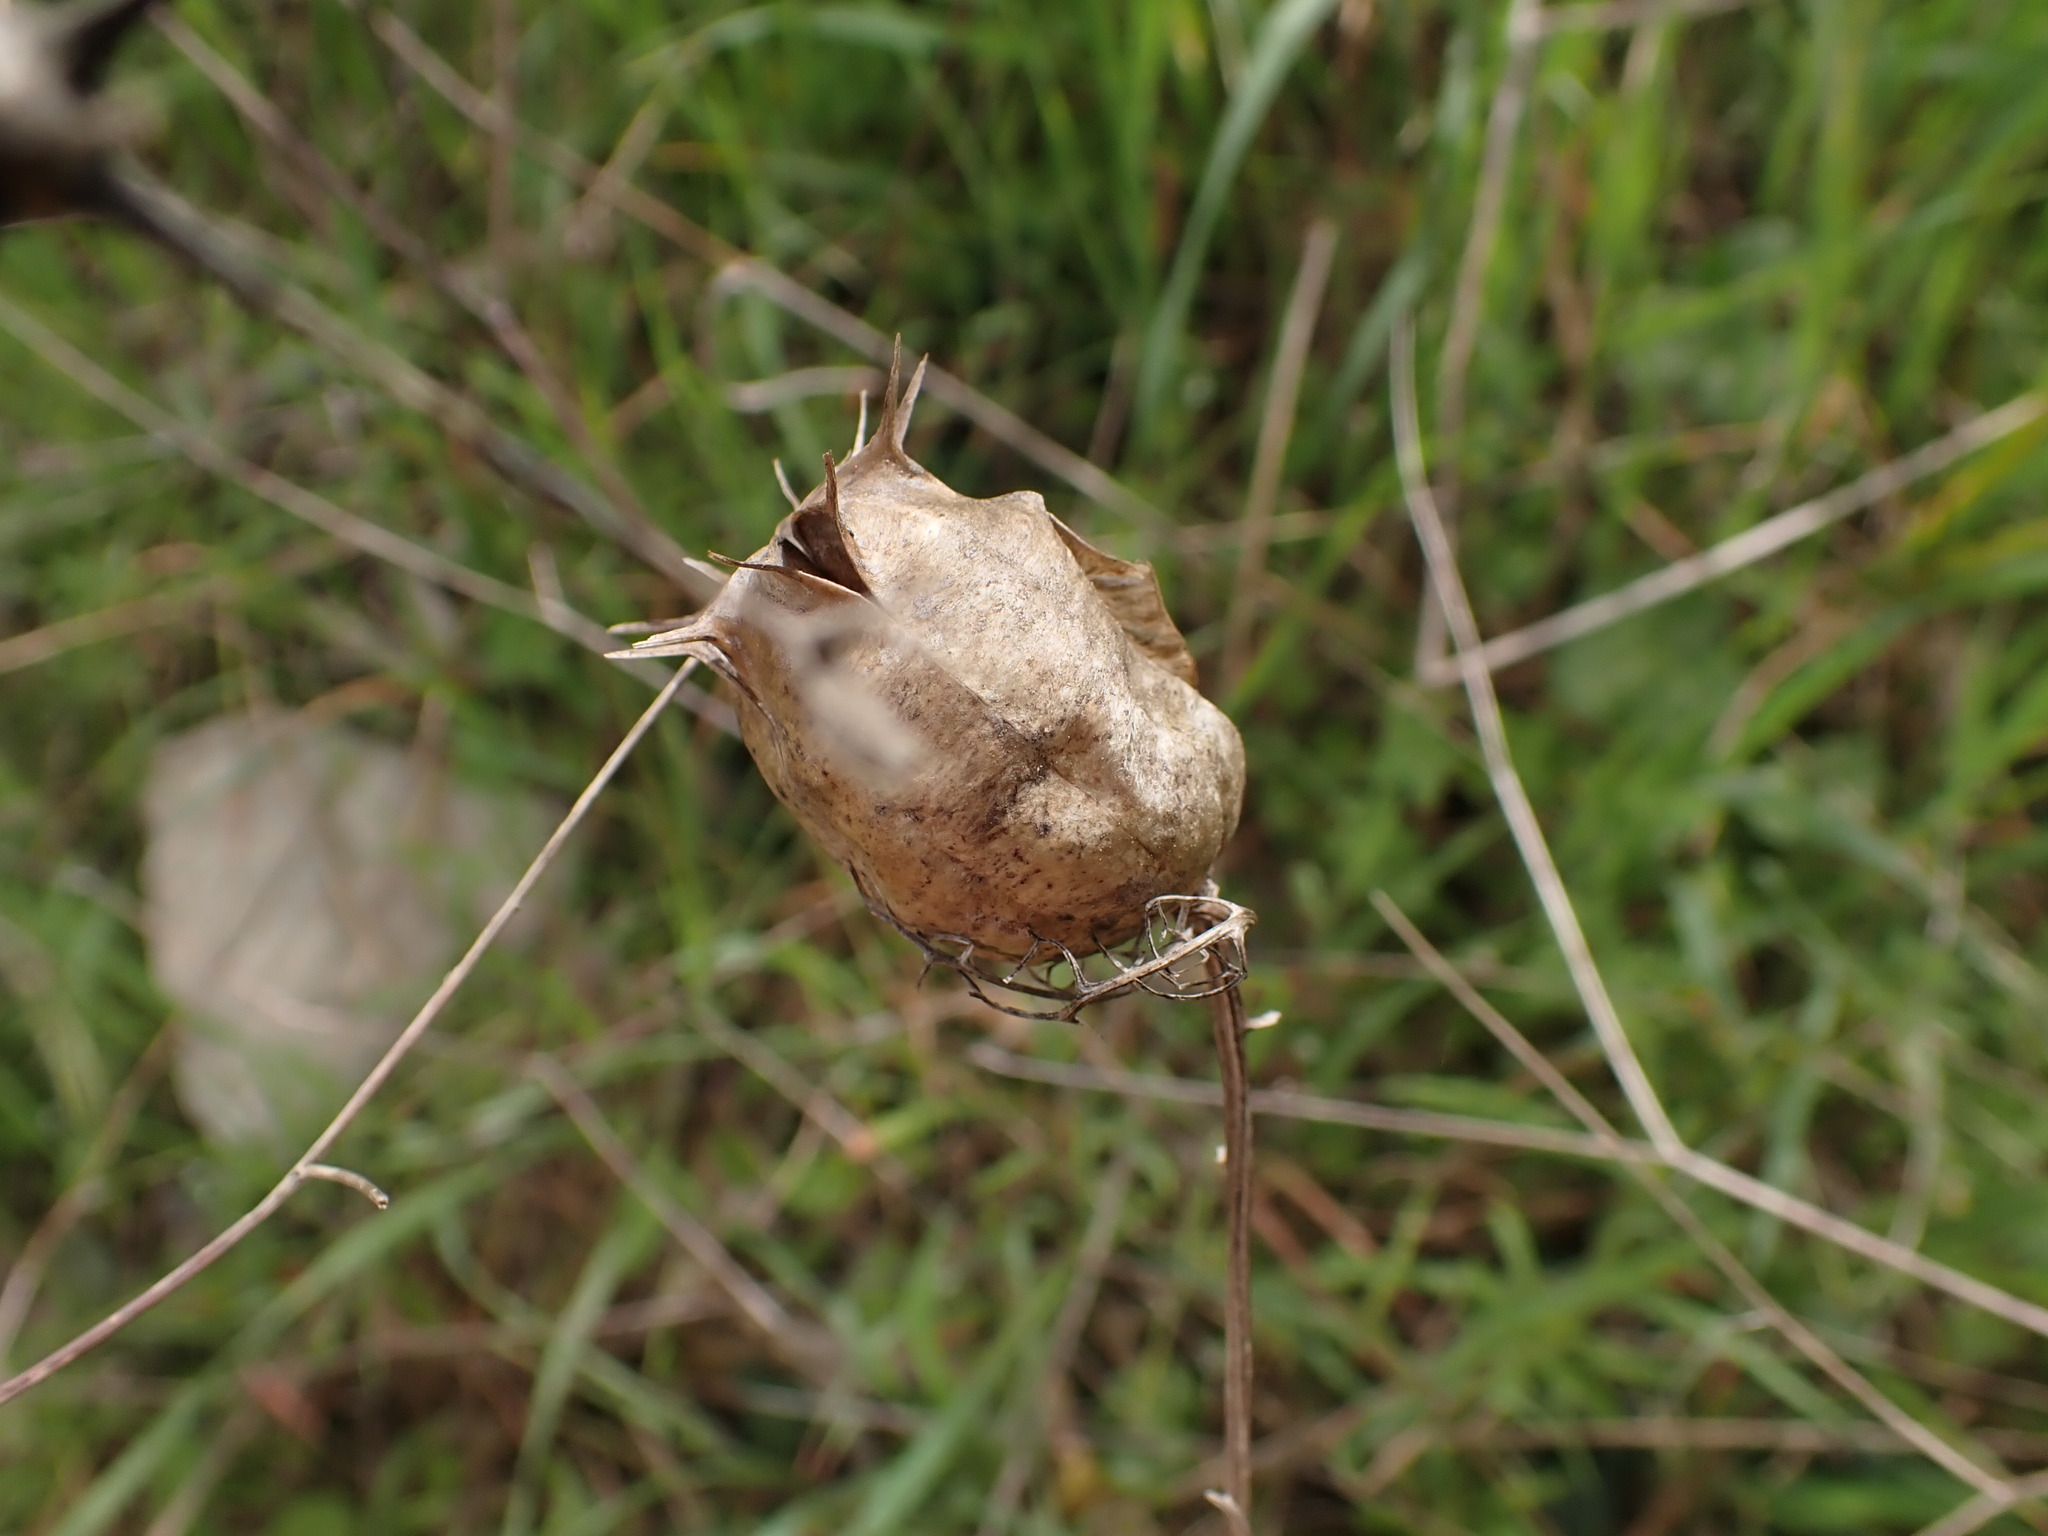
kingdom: Plantae
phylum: Tracheophyta
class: Magnoliopsida
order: Ranunculales
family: Ranunculaceae
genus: Nigella
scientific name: Nigella damascena
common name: Love-in-a-mist
